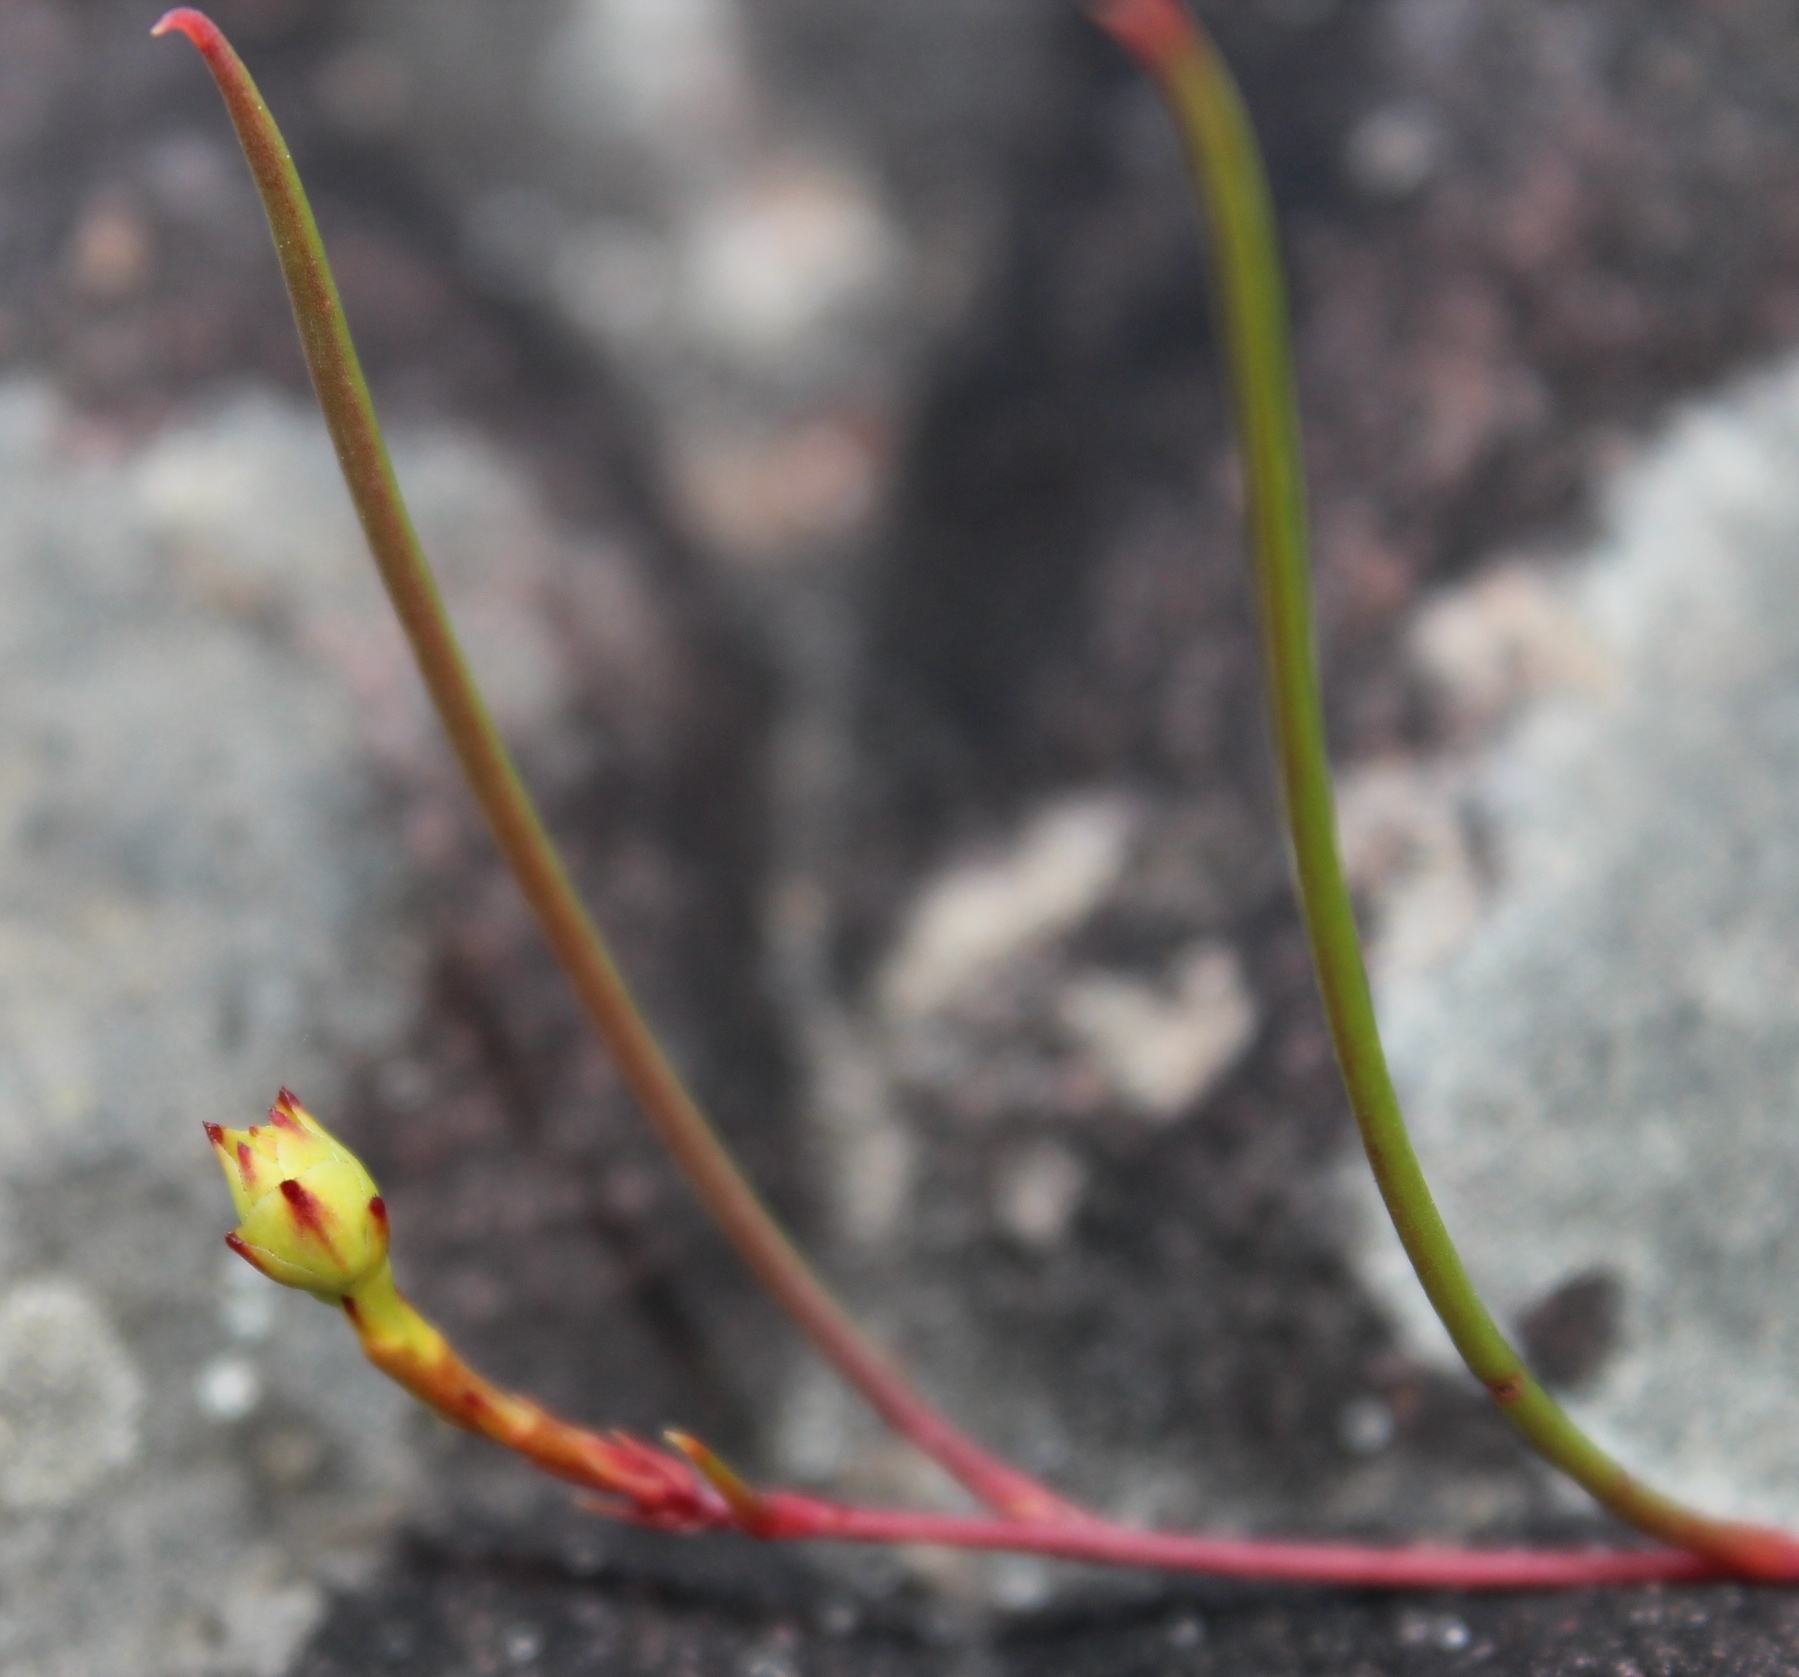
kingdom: Plantae
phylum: Tracheophyta
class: Magnoliopsida
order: Proteales
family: Proteaceae
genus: Serruria
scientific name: Serruria flagellifolia
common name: Houwhoek spiderhead
